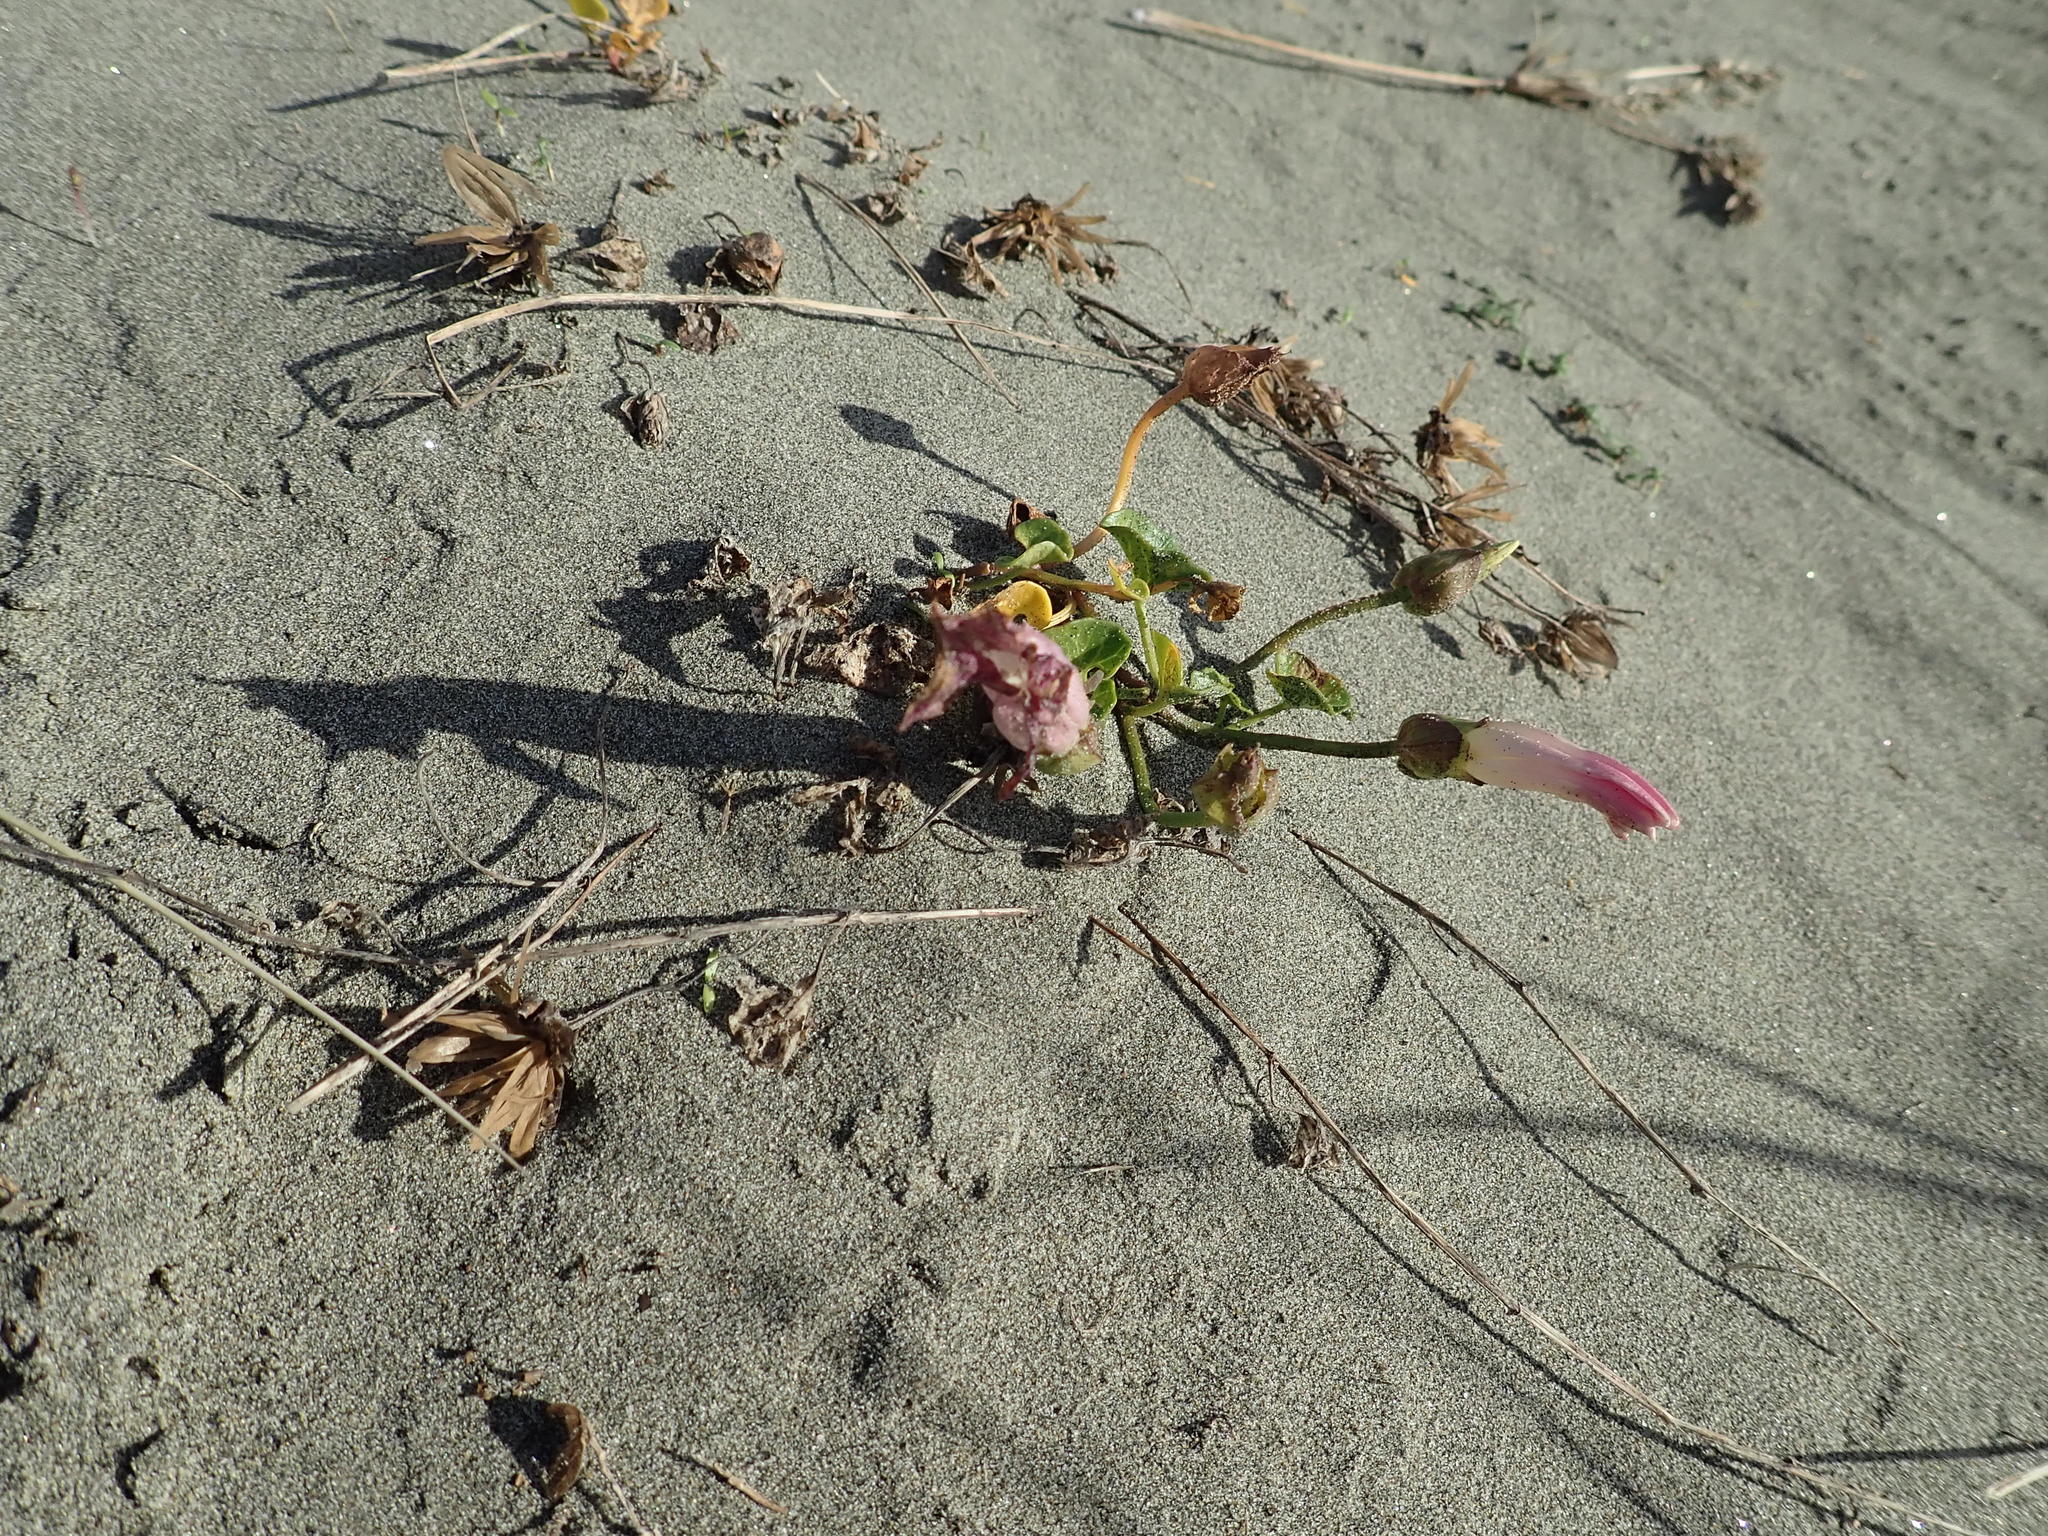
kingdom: Plantae
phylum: Tracheophyta
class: Magnoliopsida
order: Solanales
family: Convolvulaceae
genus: Calystegia
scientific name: Calystegia soldanella
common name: Sea bindweed
